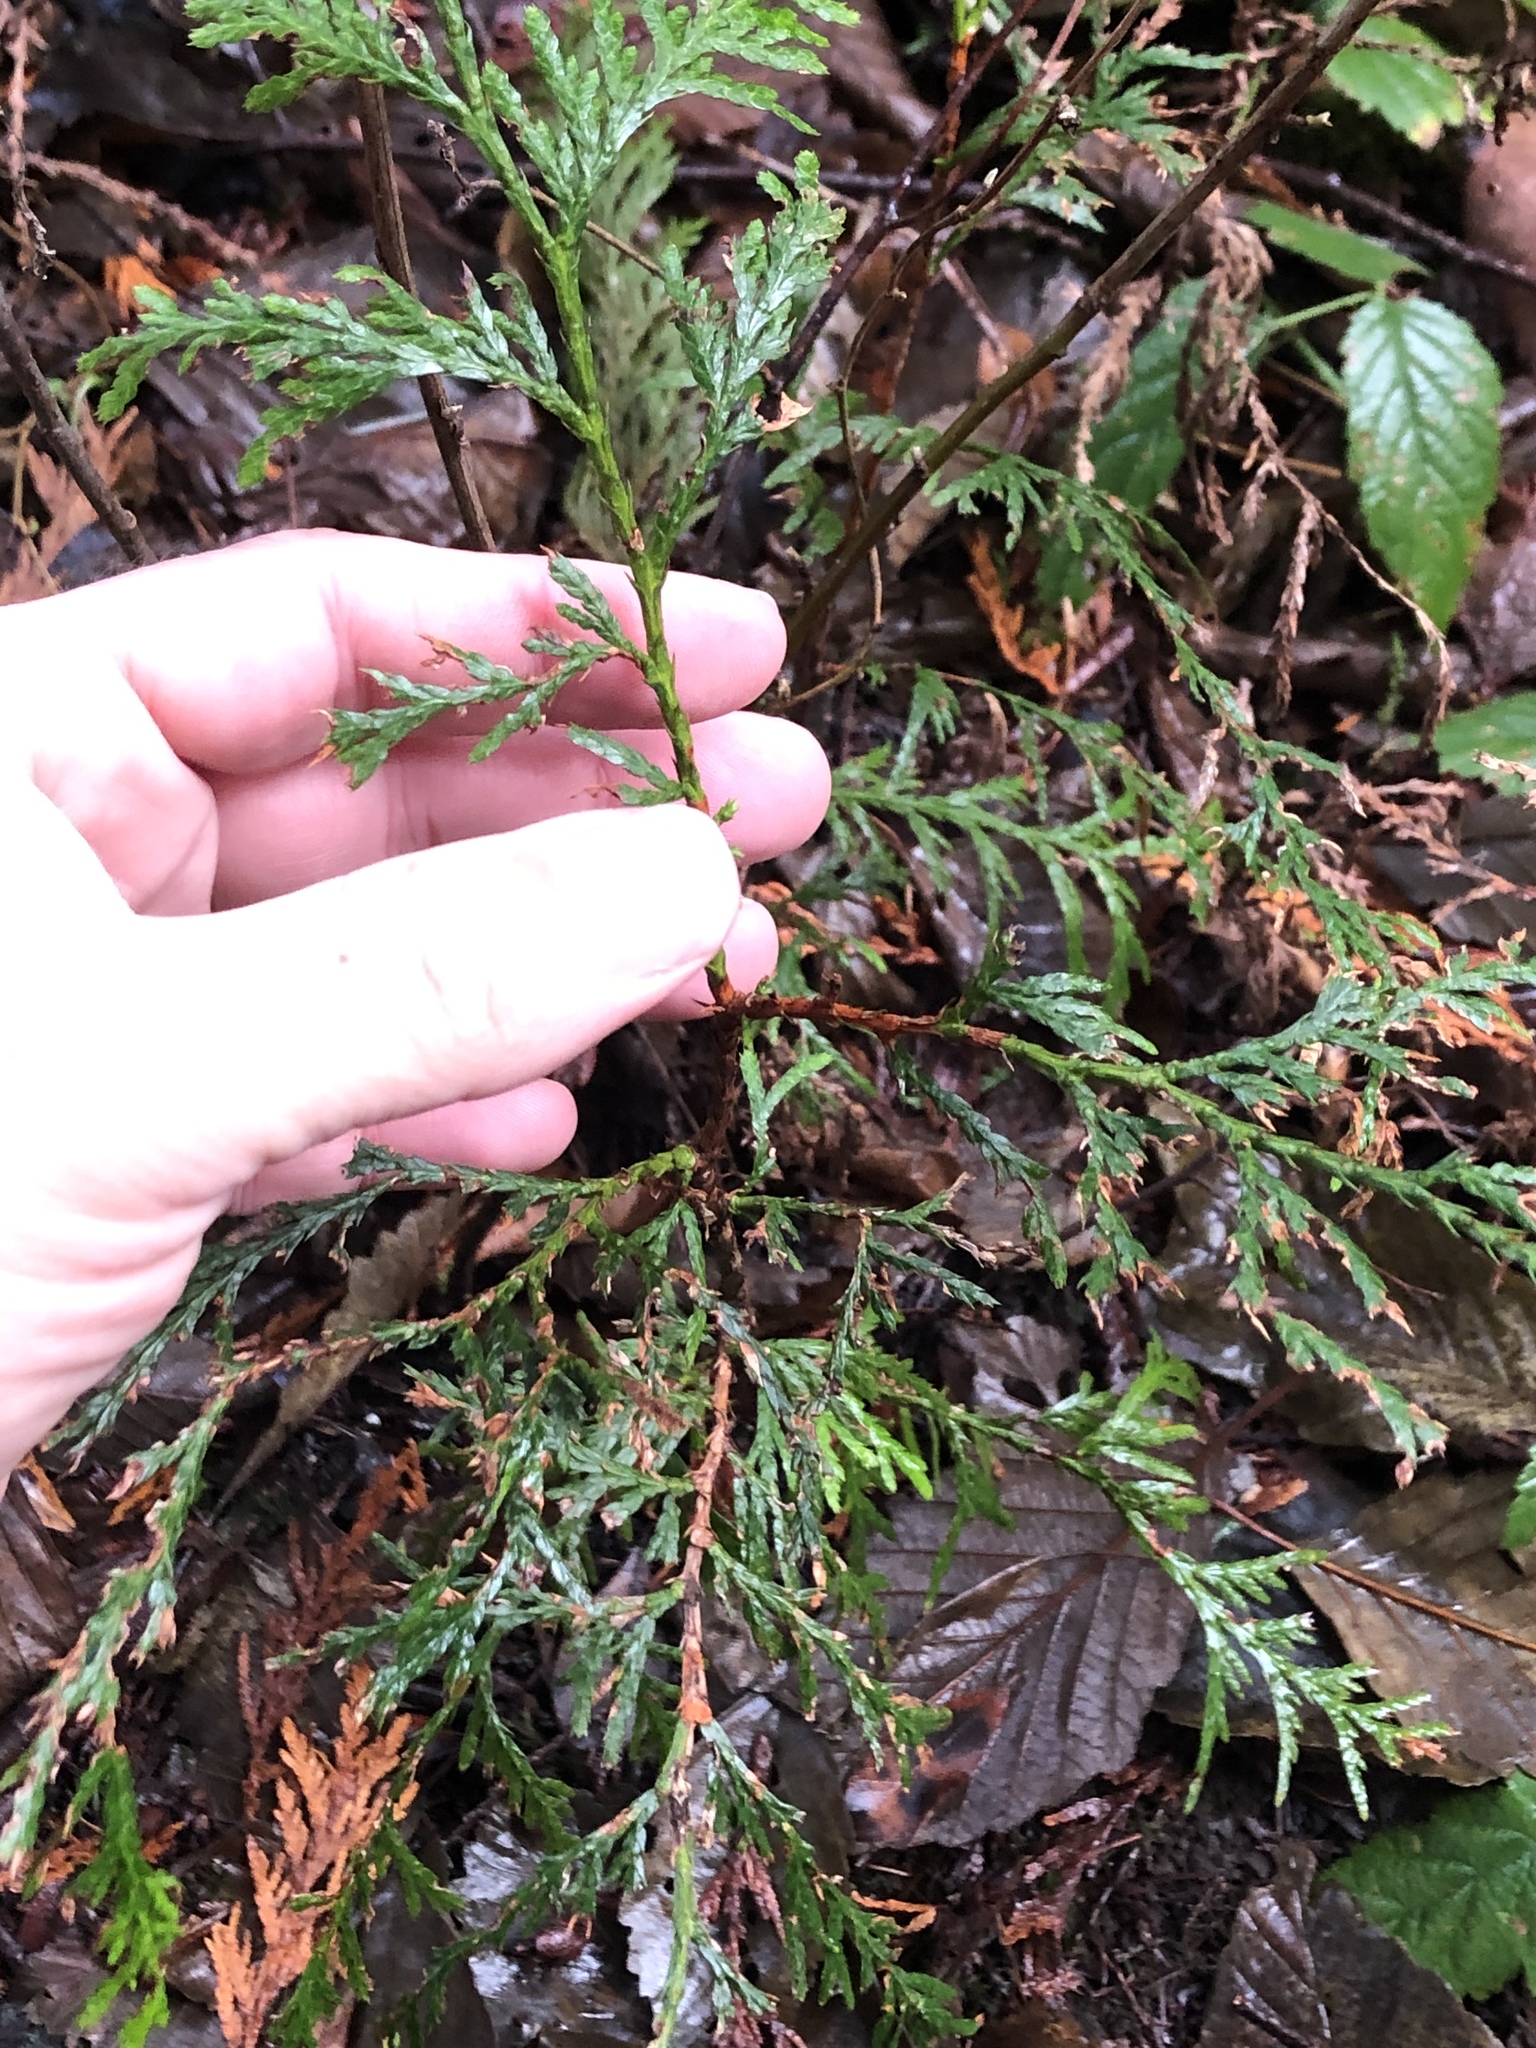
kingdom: Plantae
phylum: Tracheophyta
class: Pinopsida
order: Pinales
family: Cupressaceae
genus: Thuja
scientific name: Thuja plicata
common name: Western red-cedar
